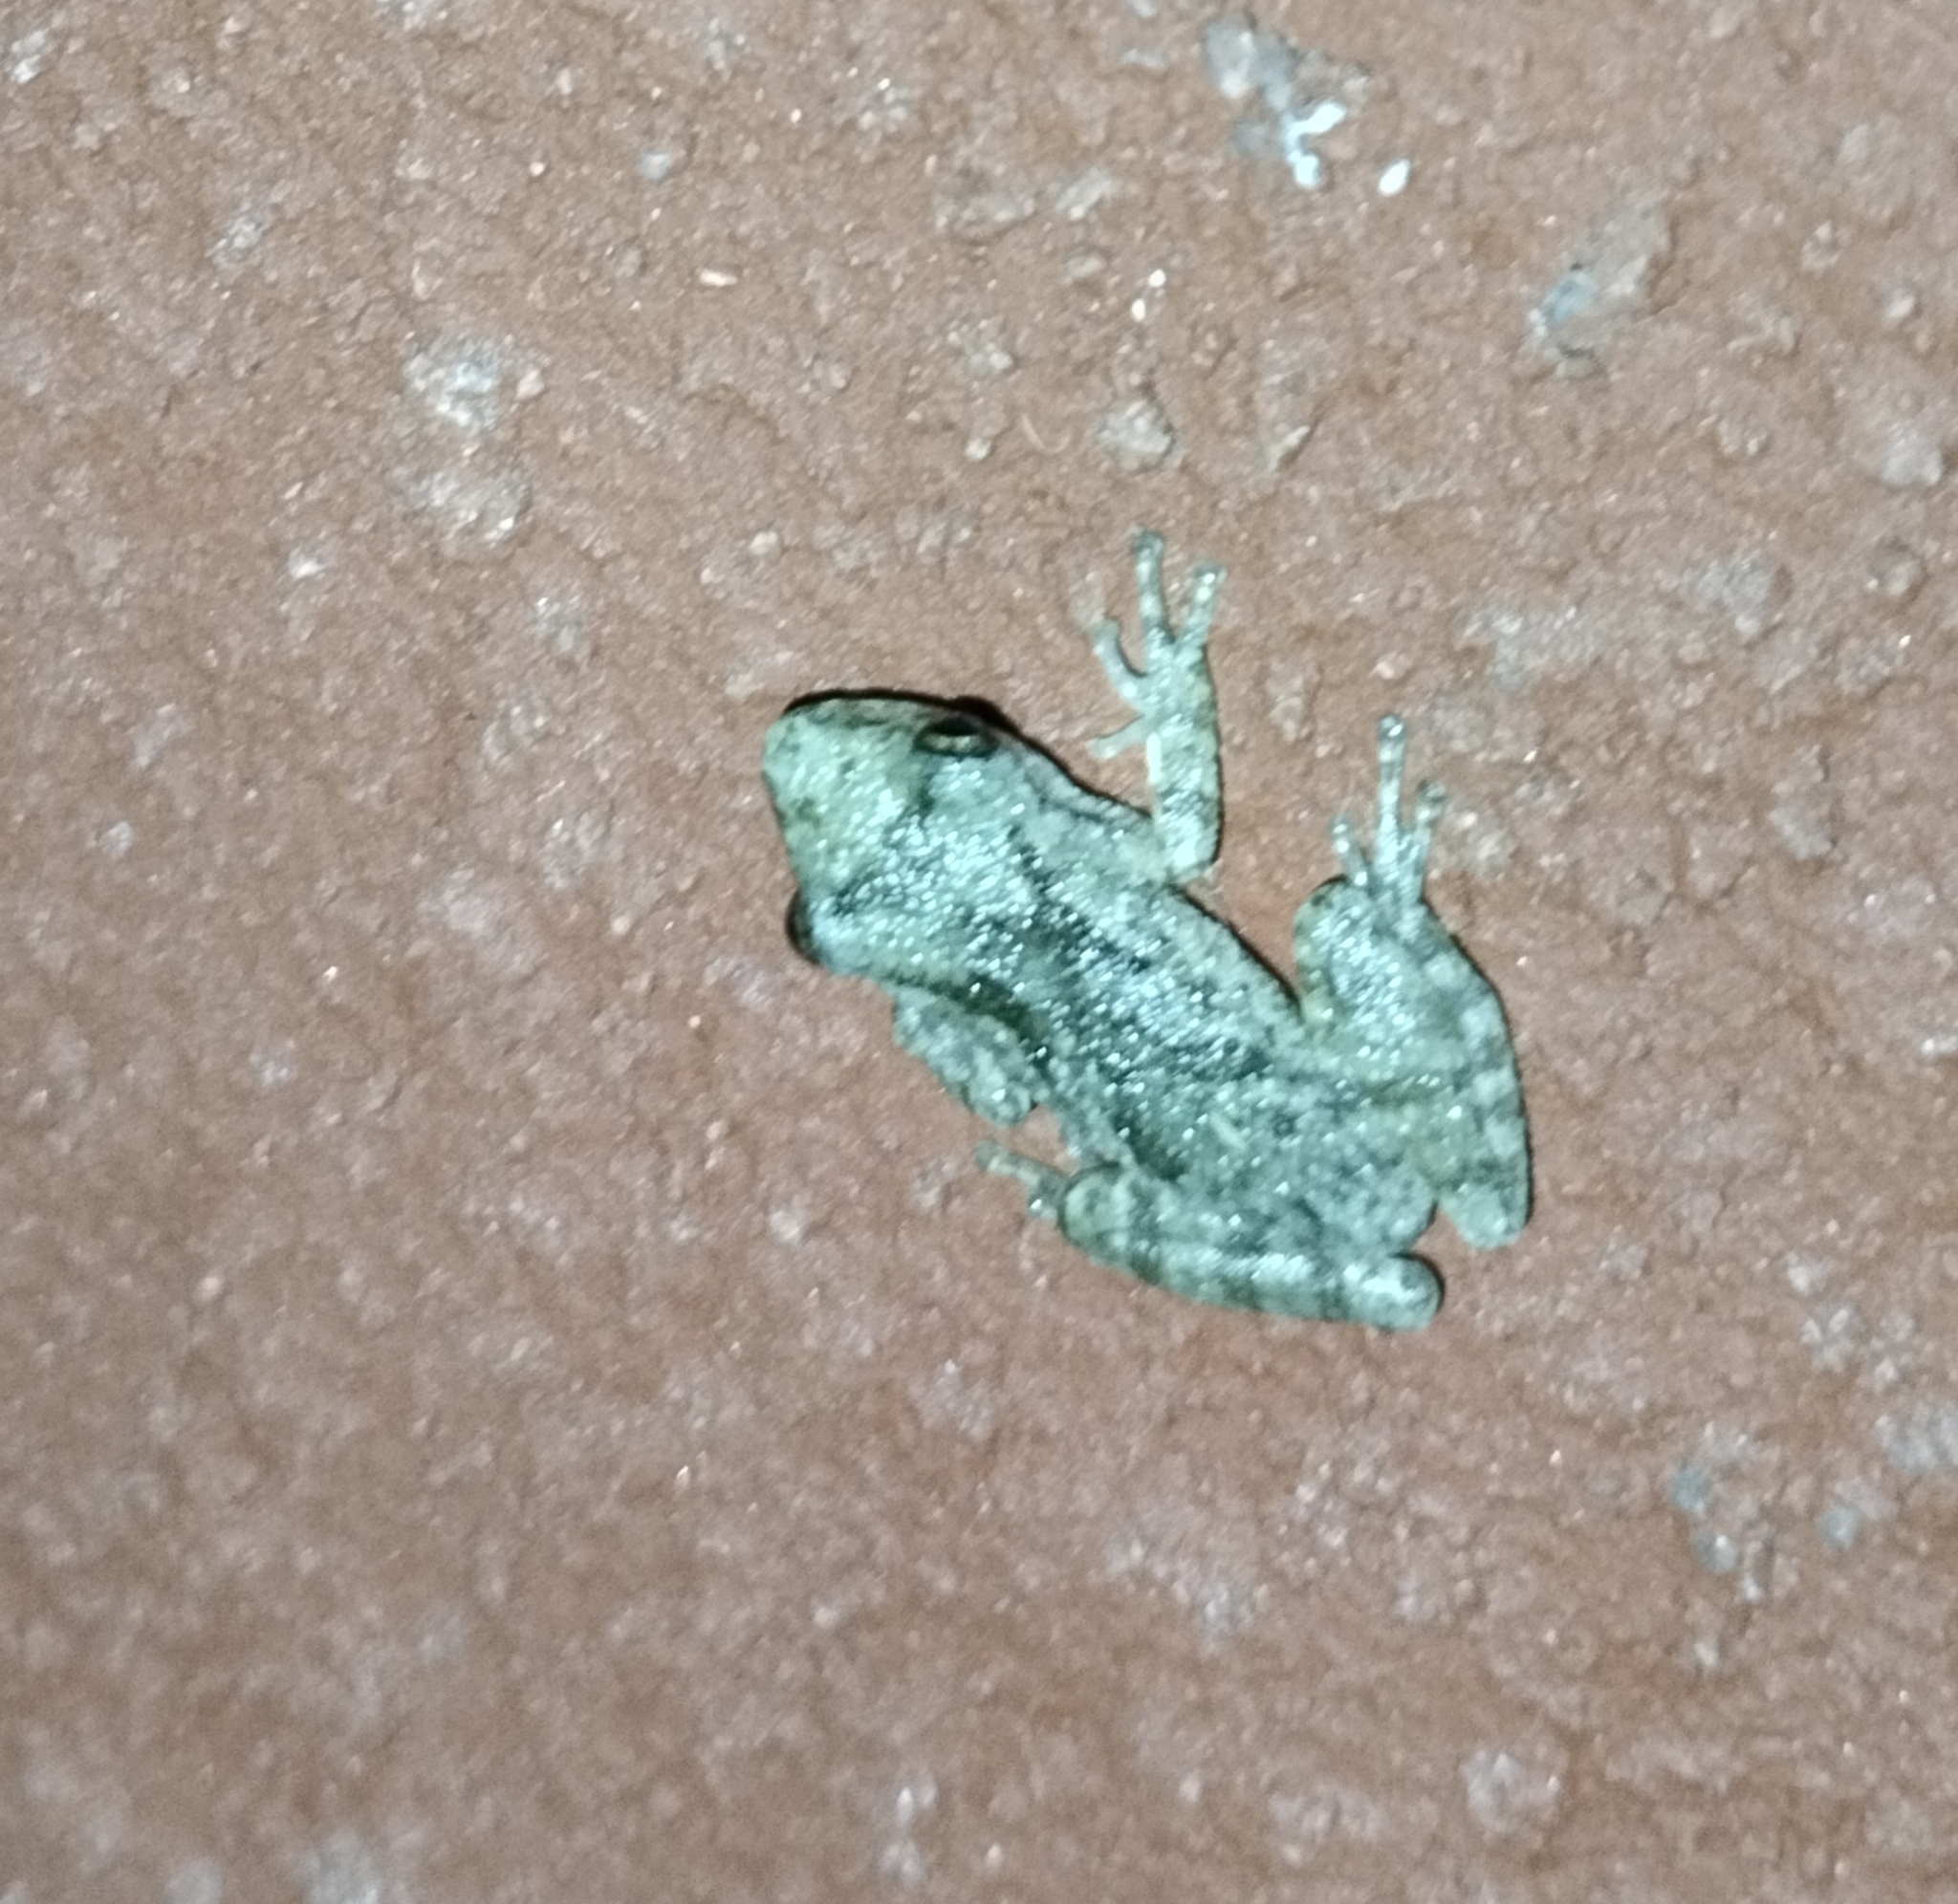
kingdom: Animalia
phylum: Chordata
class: Amphibia
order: Anura
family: Hylidae
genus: Scinax
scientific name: Scinax granulatus
